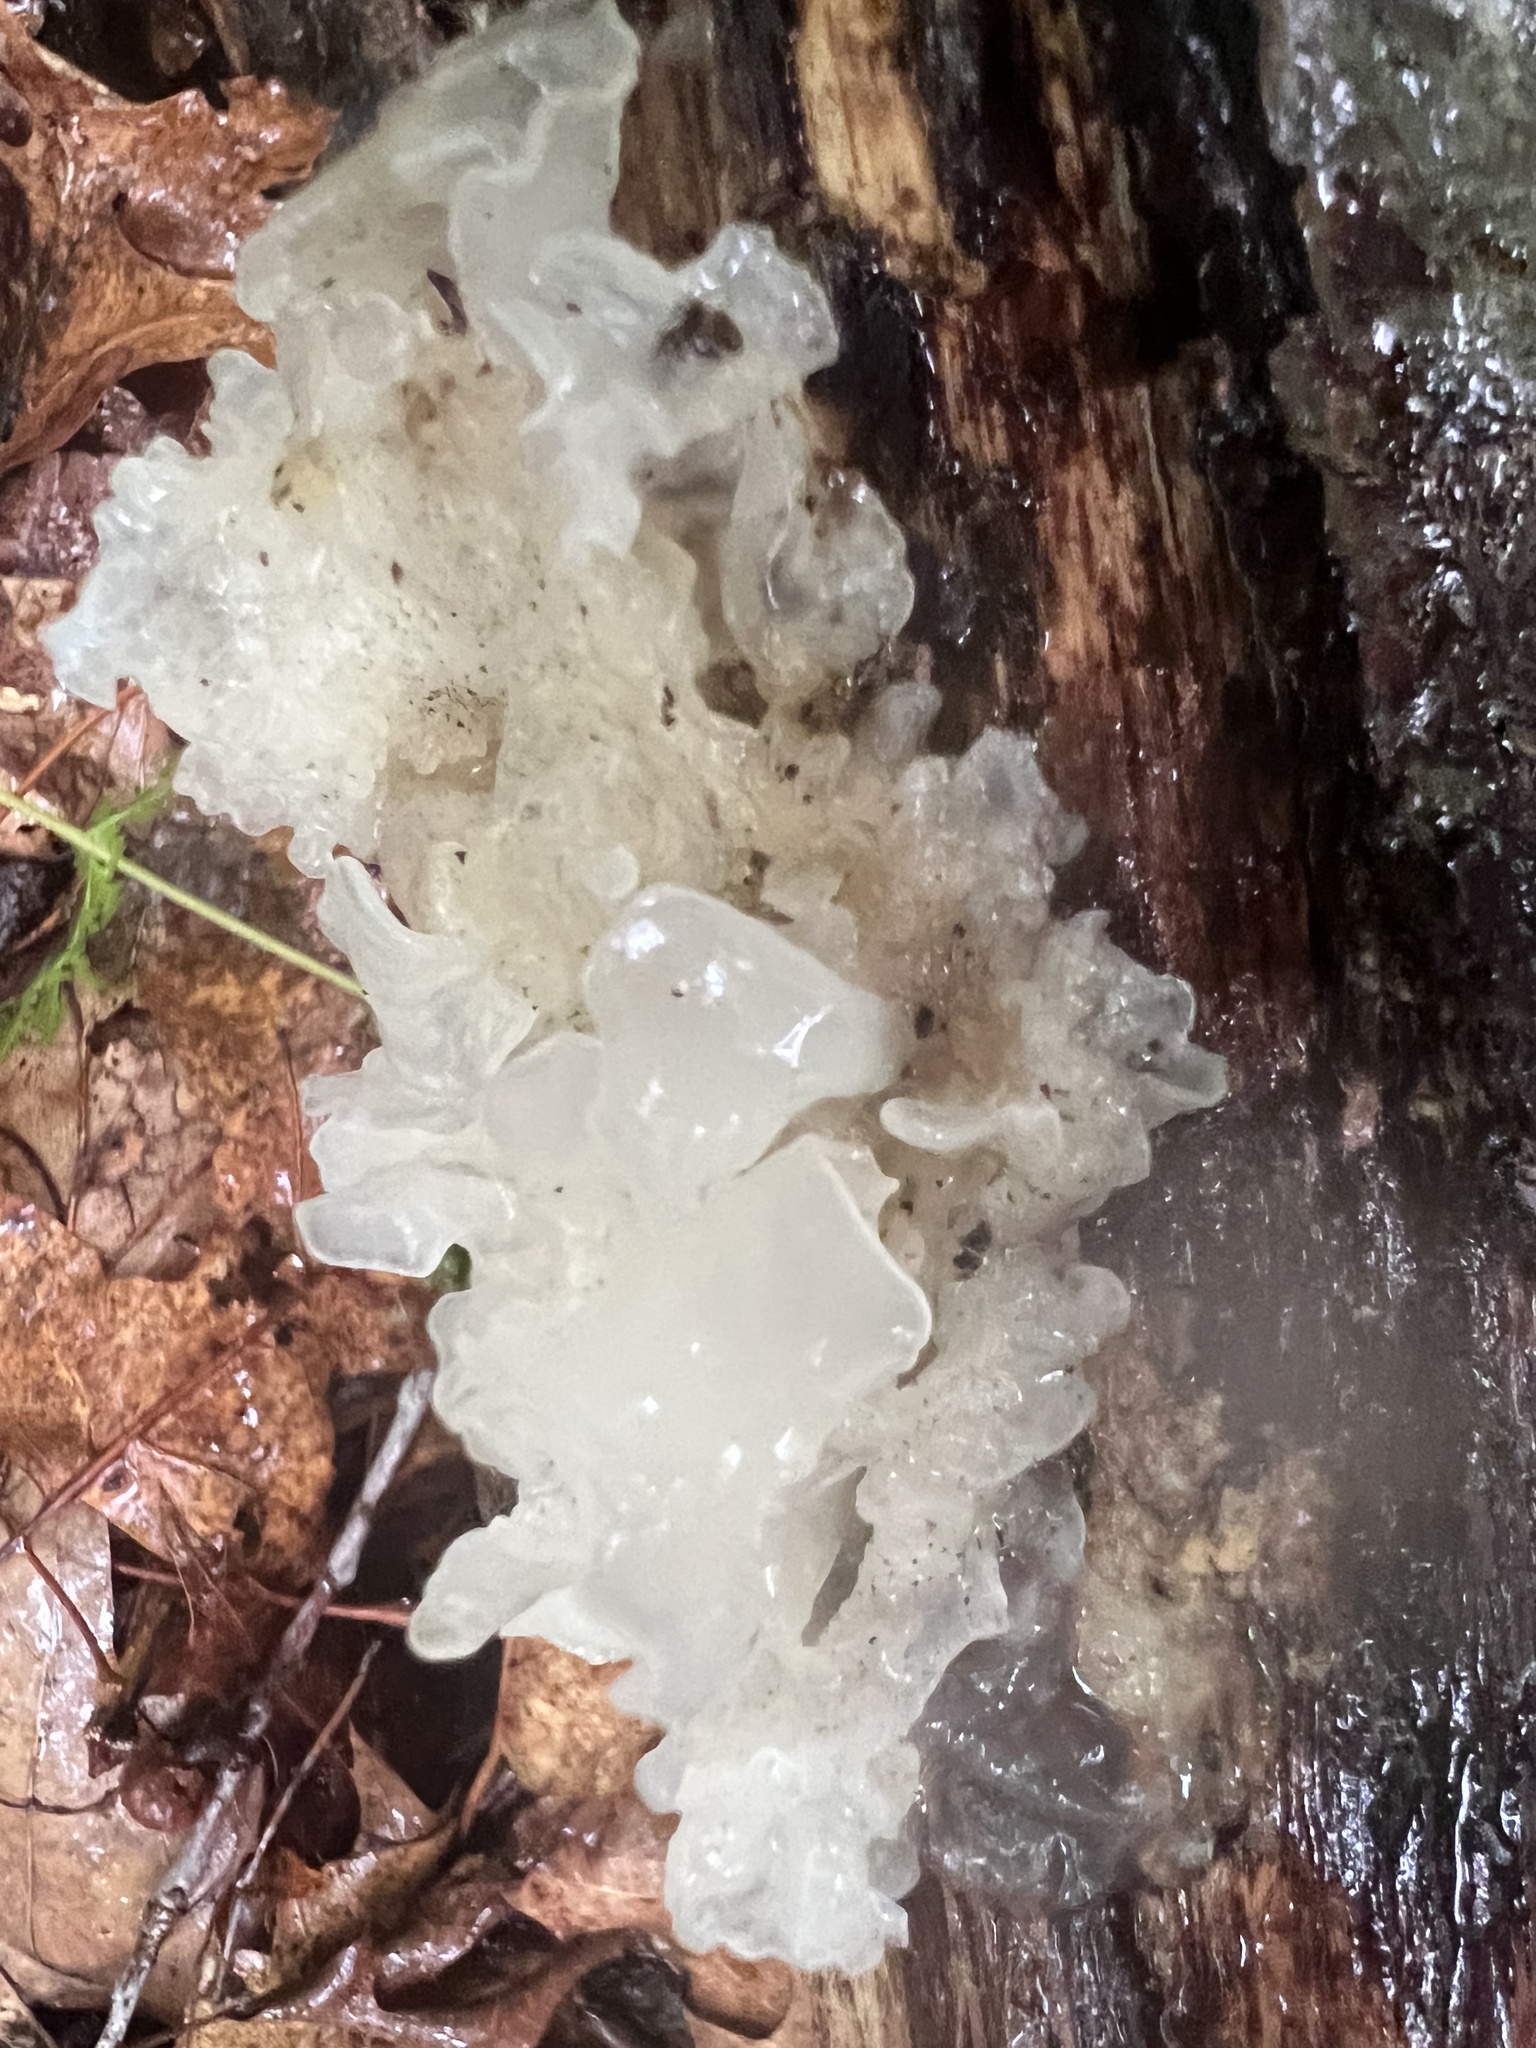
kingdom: Fungi
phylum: Basidiomycota
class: Tremellomycetes
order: Tremellales
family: Tremellaceae
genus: Tremella
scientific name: Tremella fuciformis
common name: Snow fungus
